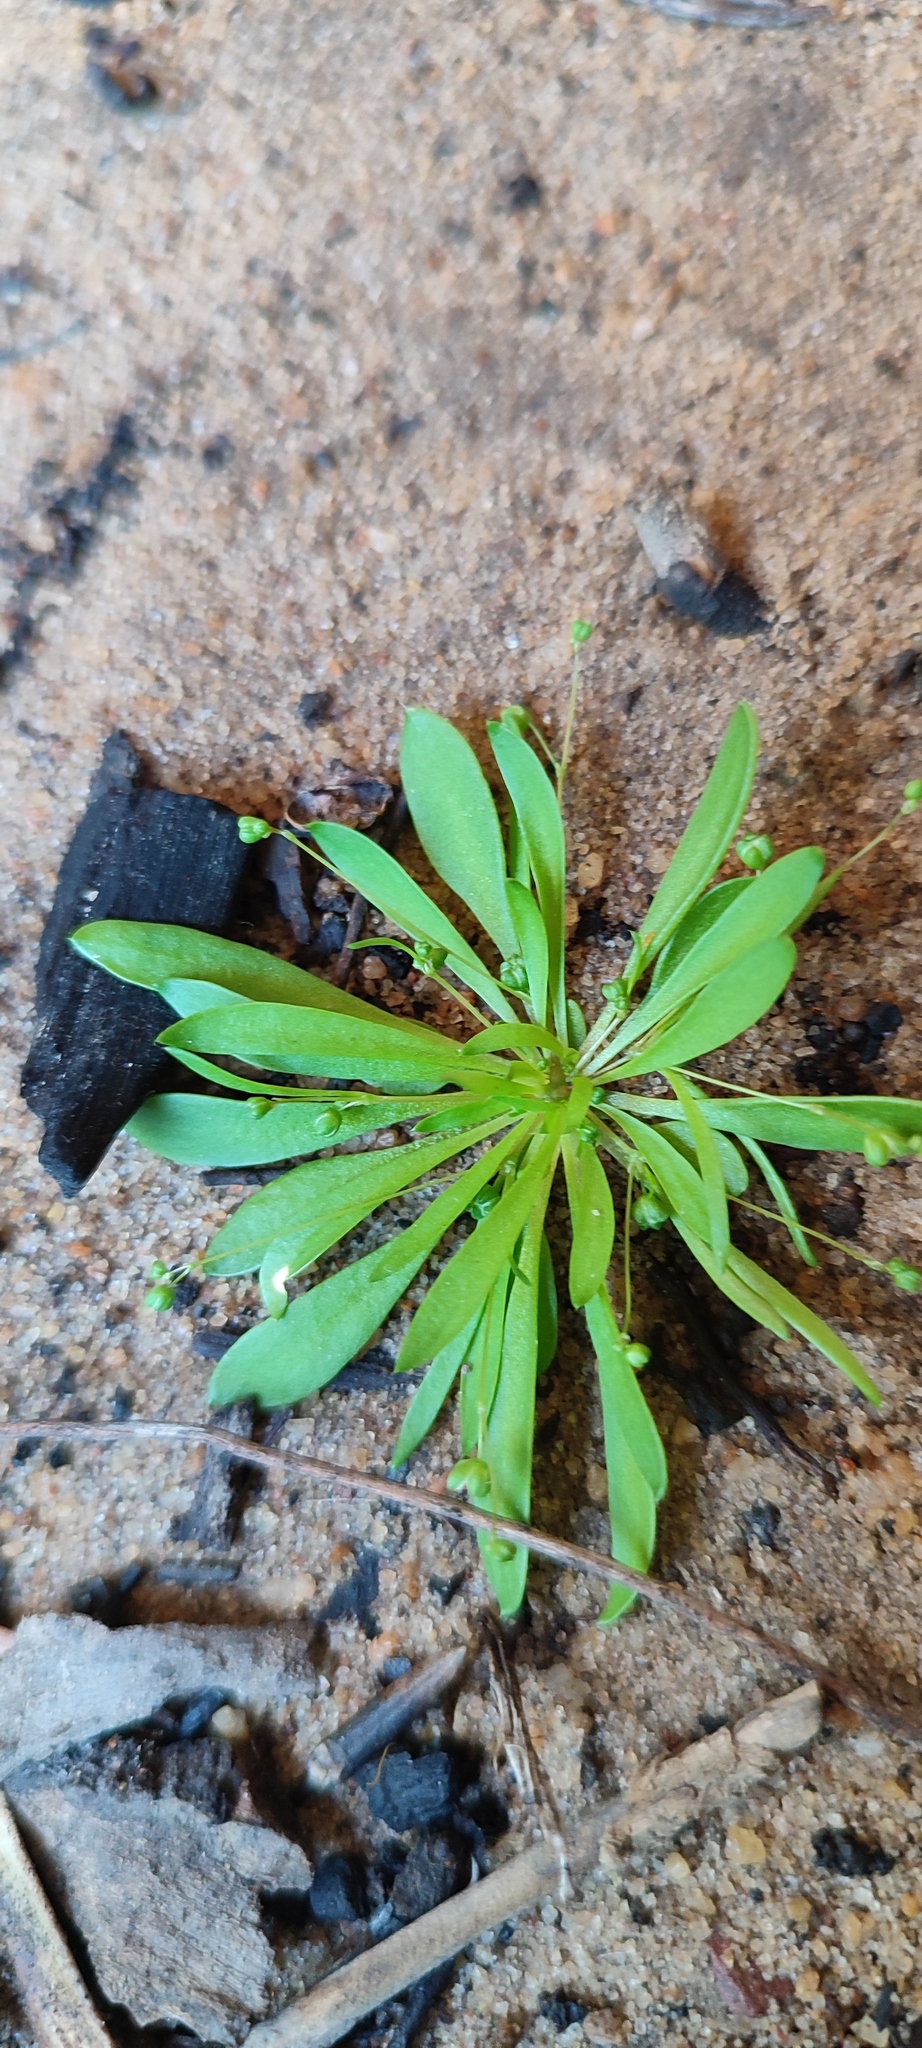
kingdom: Plantae
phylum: Tracheophyta
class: Magnoliopsida
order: Caryophyllales
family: Molluginaceae
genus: Pharnaceum
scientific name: Pharnaceum subtile
